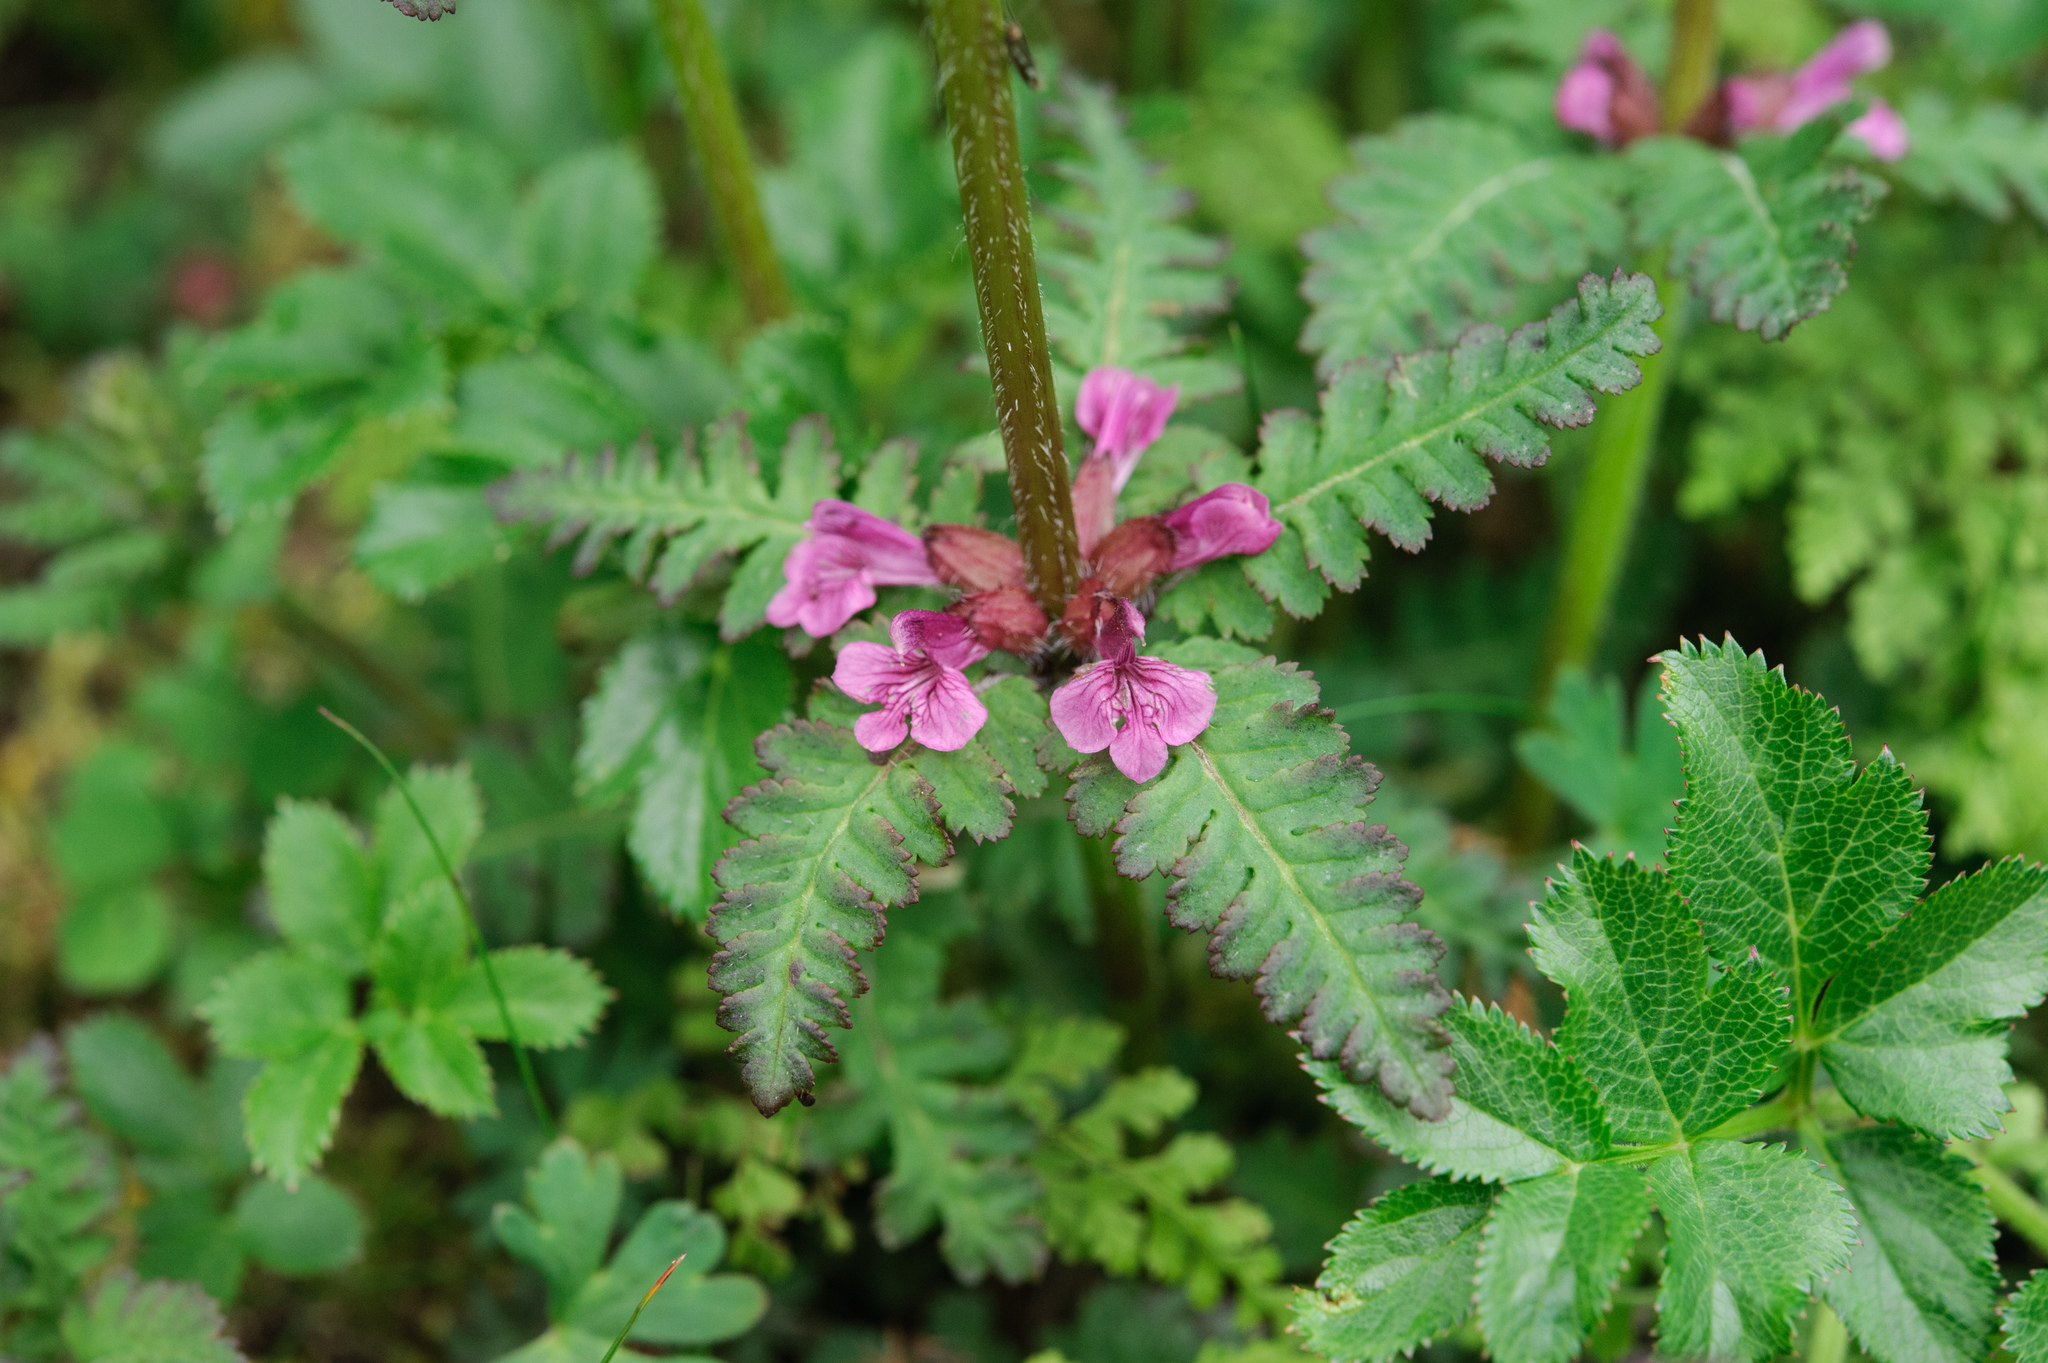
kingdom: Plantae
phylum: Tracheophyta
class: Magnoliopsida
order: Lamiales
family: Orobanchaceae
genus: Pedicularis
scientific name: Pedicularis refracta
